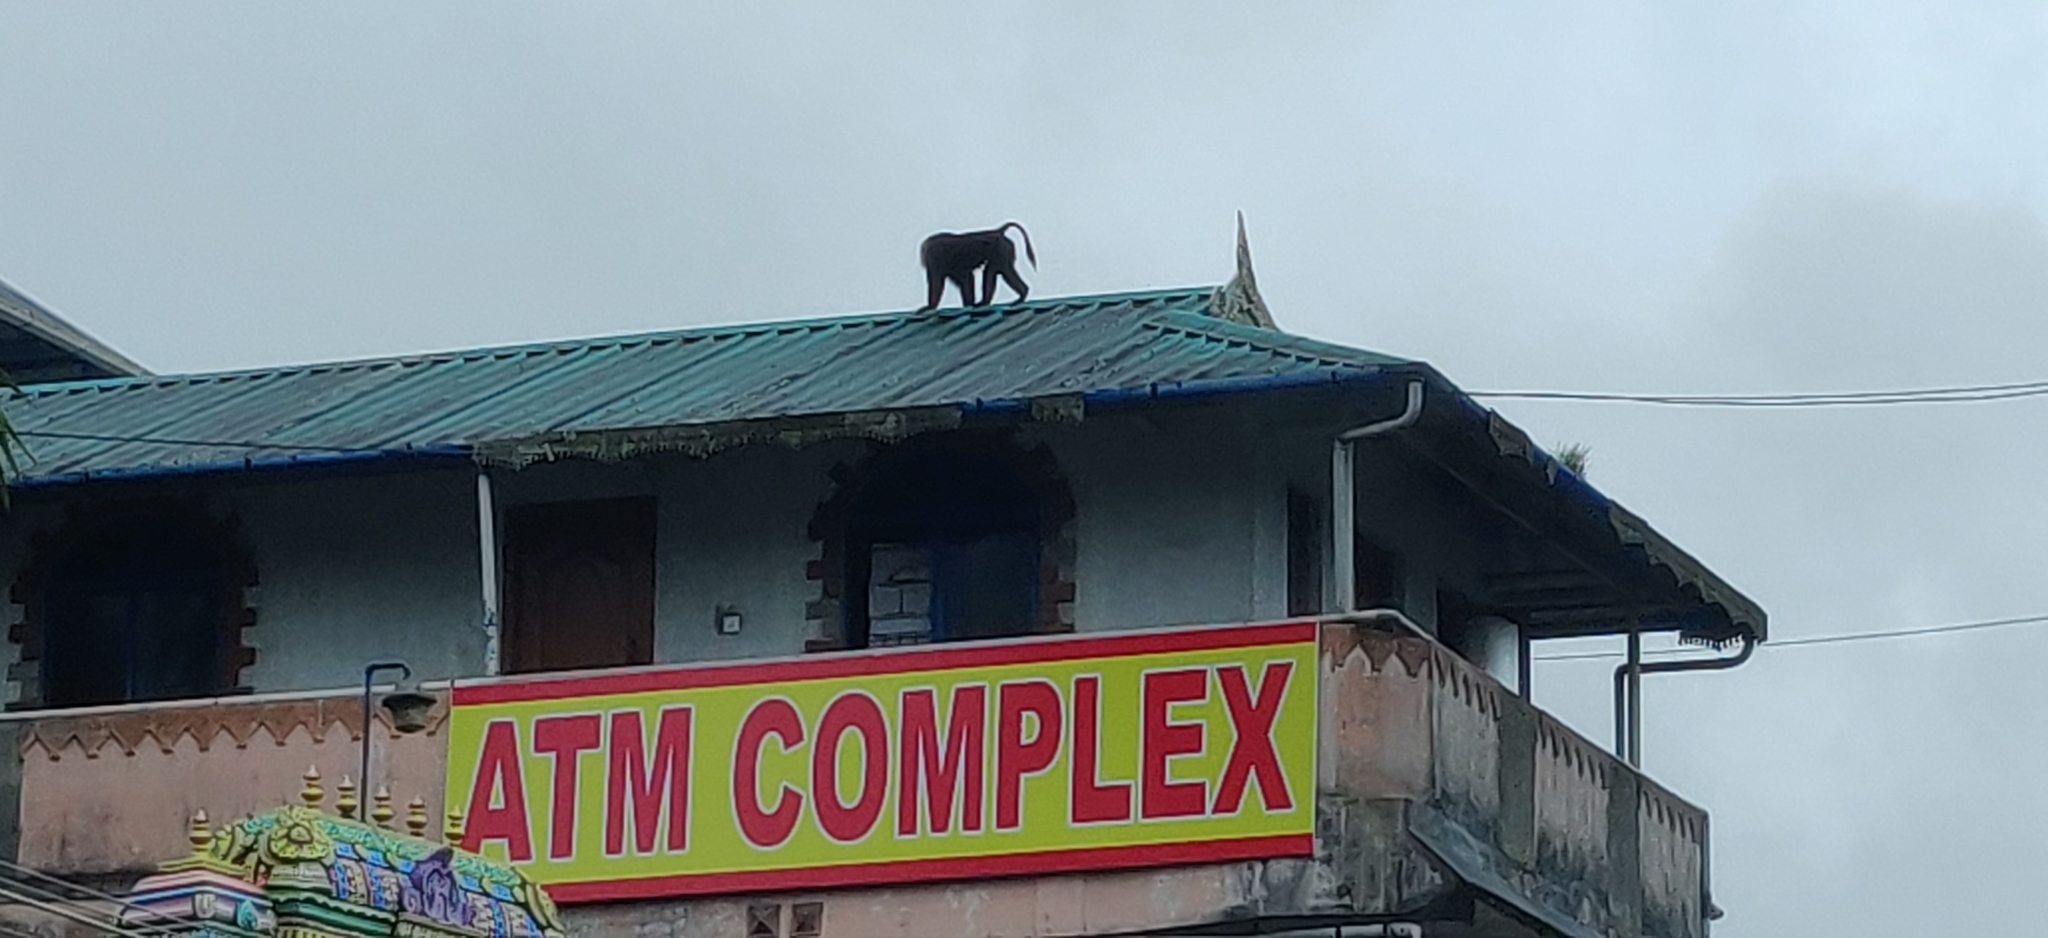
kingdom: Animalia
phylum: Chordata
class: Mammalia
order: Primates
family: Cercopithecidae
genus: Macaca
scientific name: Macaca silenus
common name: Lion-tailed macaque
